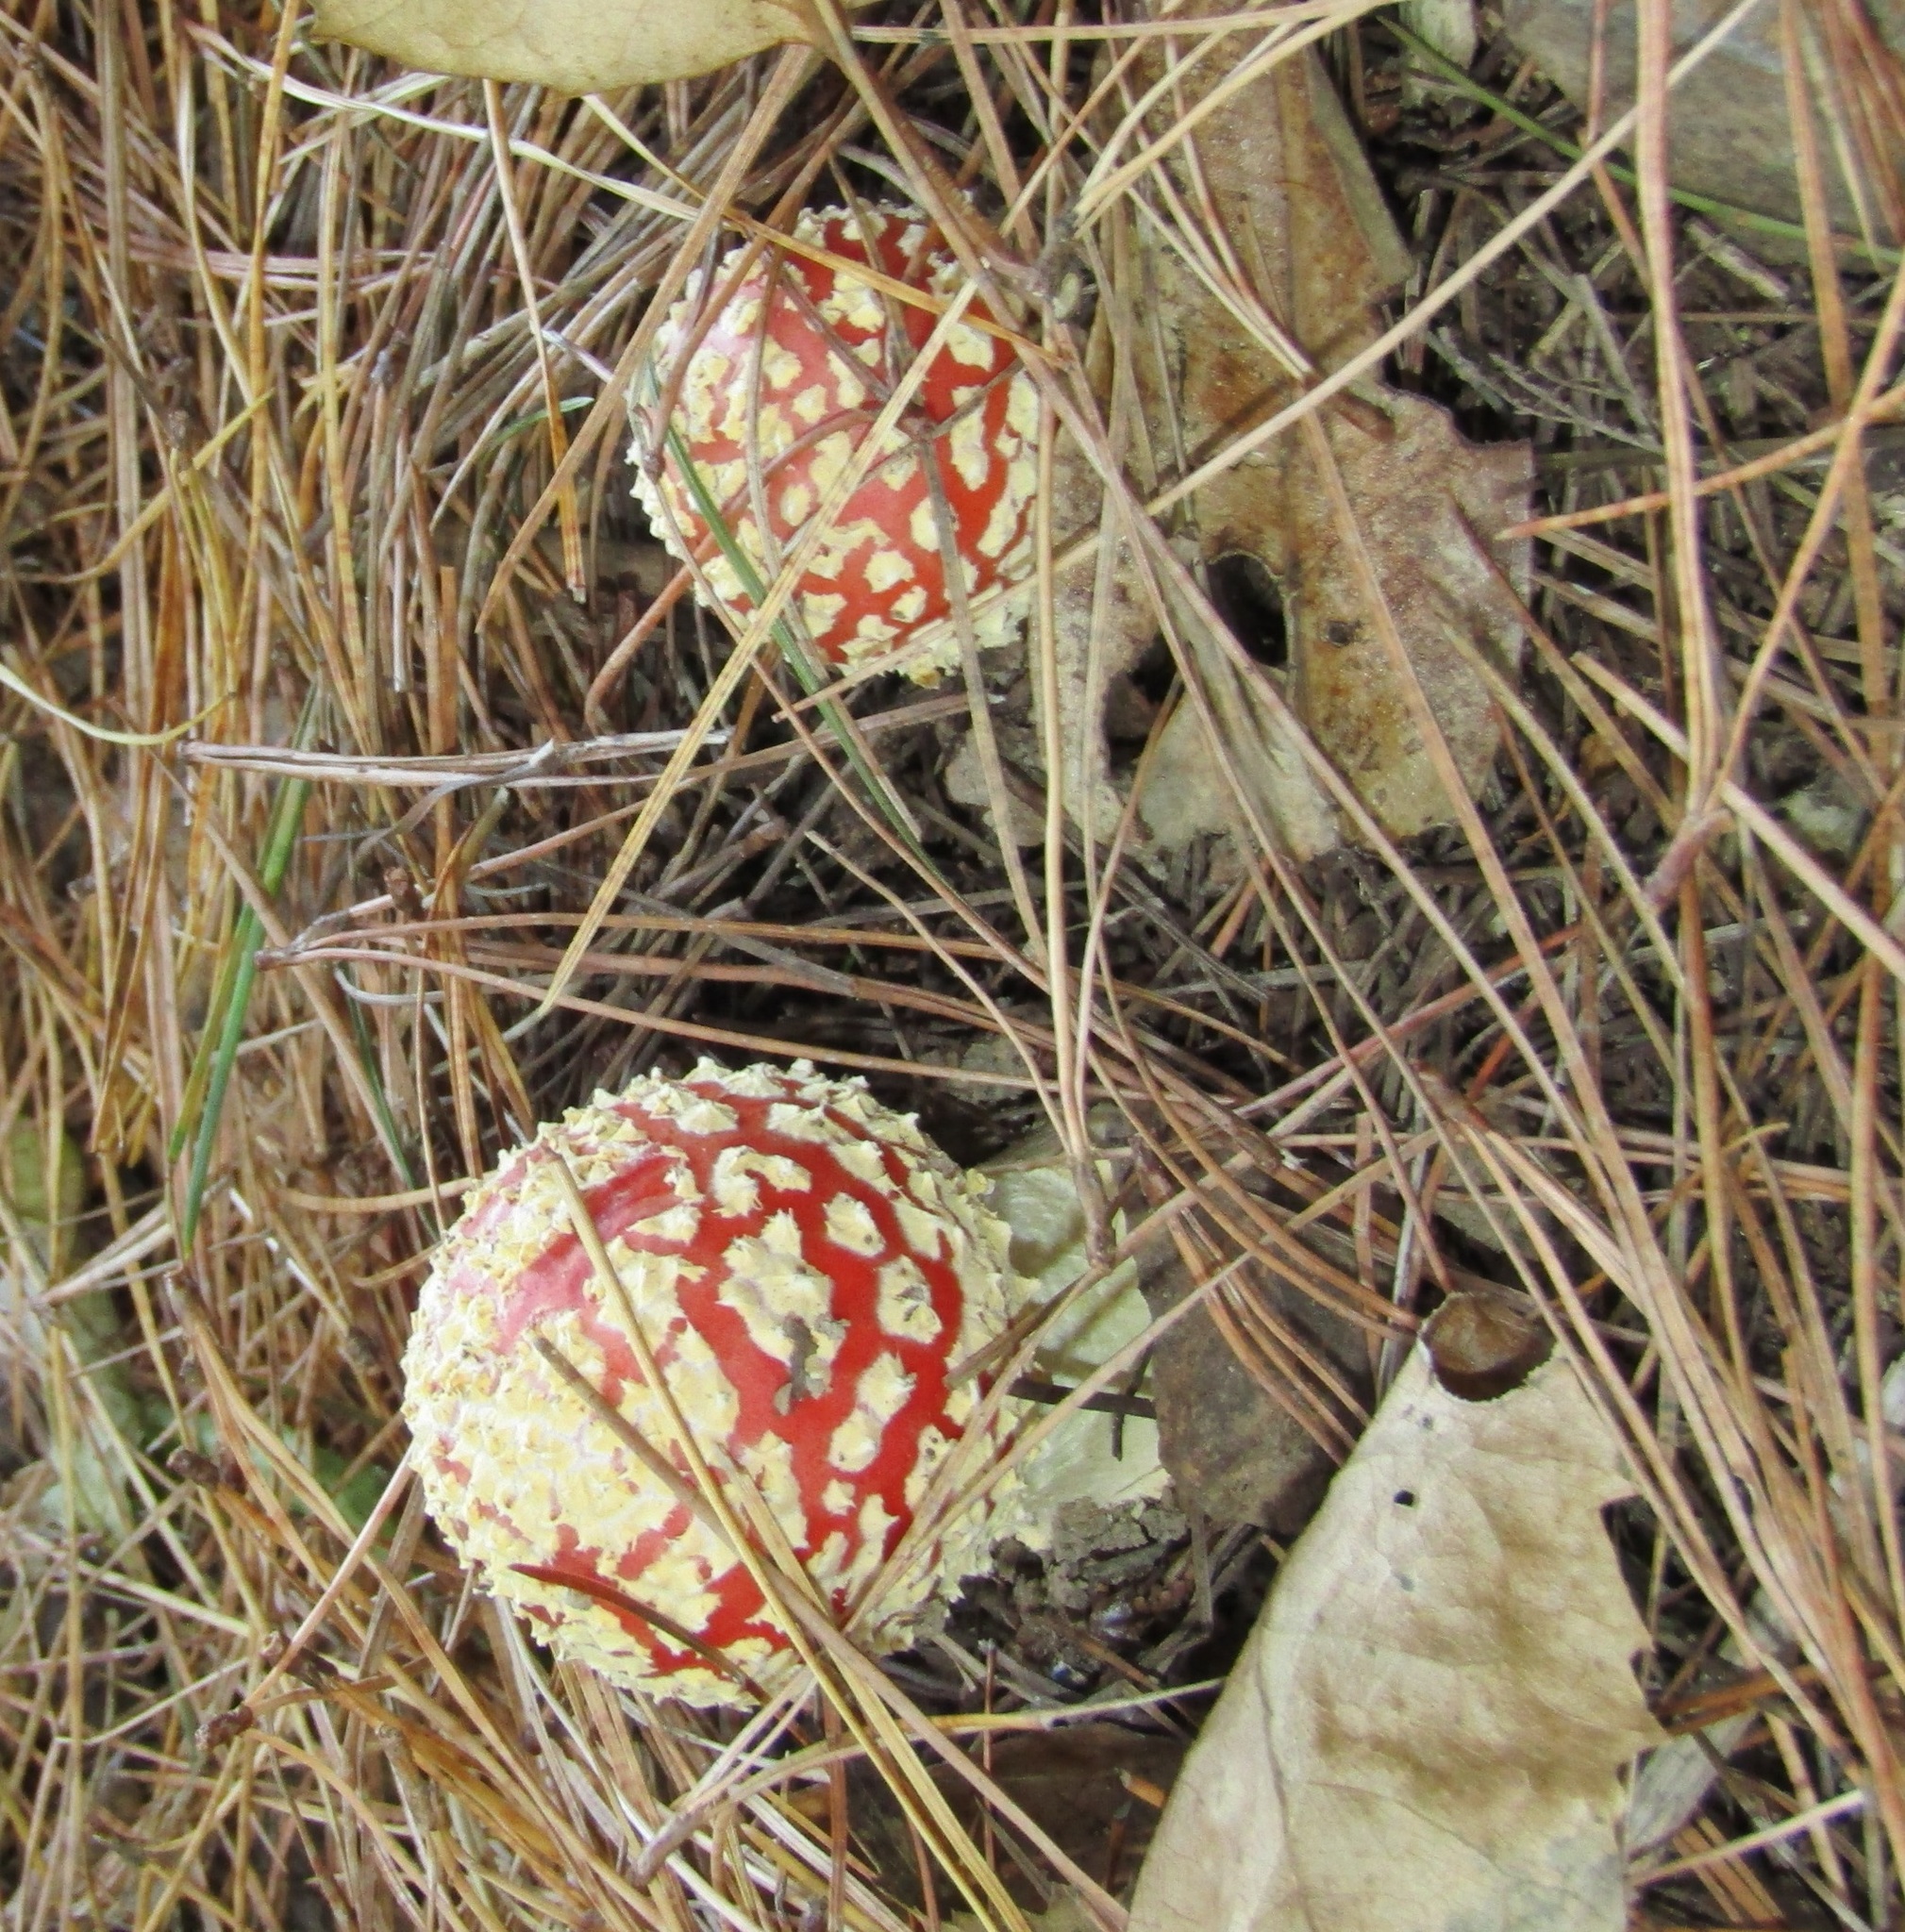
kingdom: Fungi
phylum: Basidiomycota
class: Agaricomycetes
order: Agaricales
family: Amanitaceae
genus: Amanita
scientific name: Amanita muscaria
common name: Fly agaric
